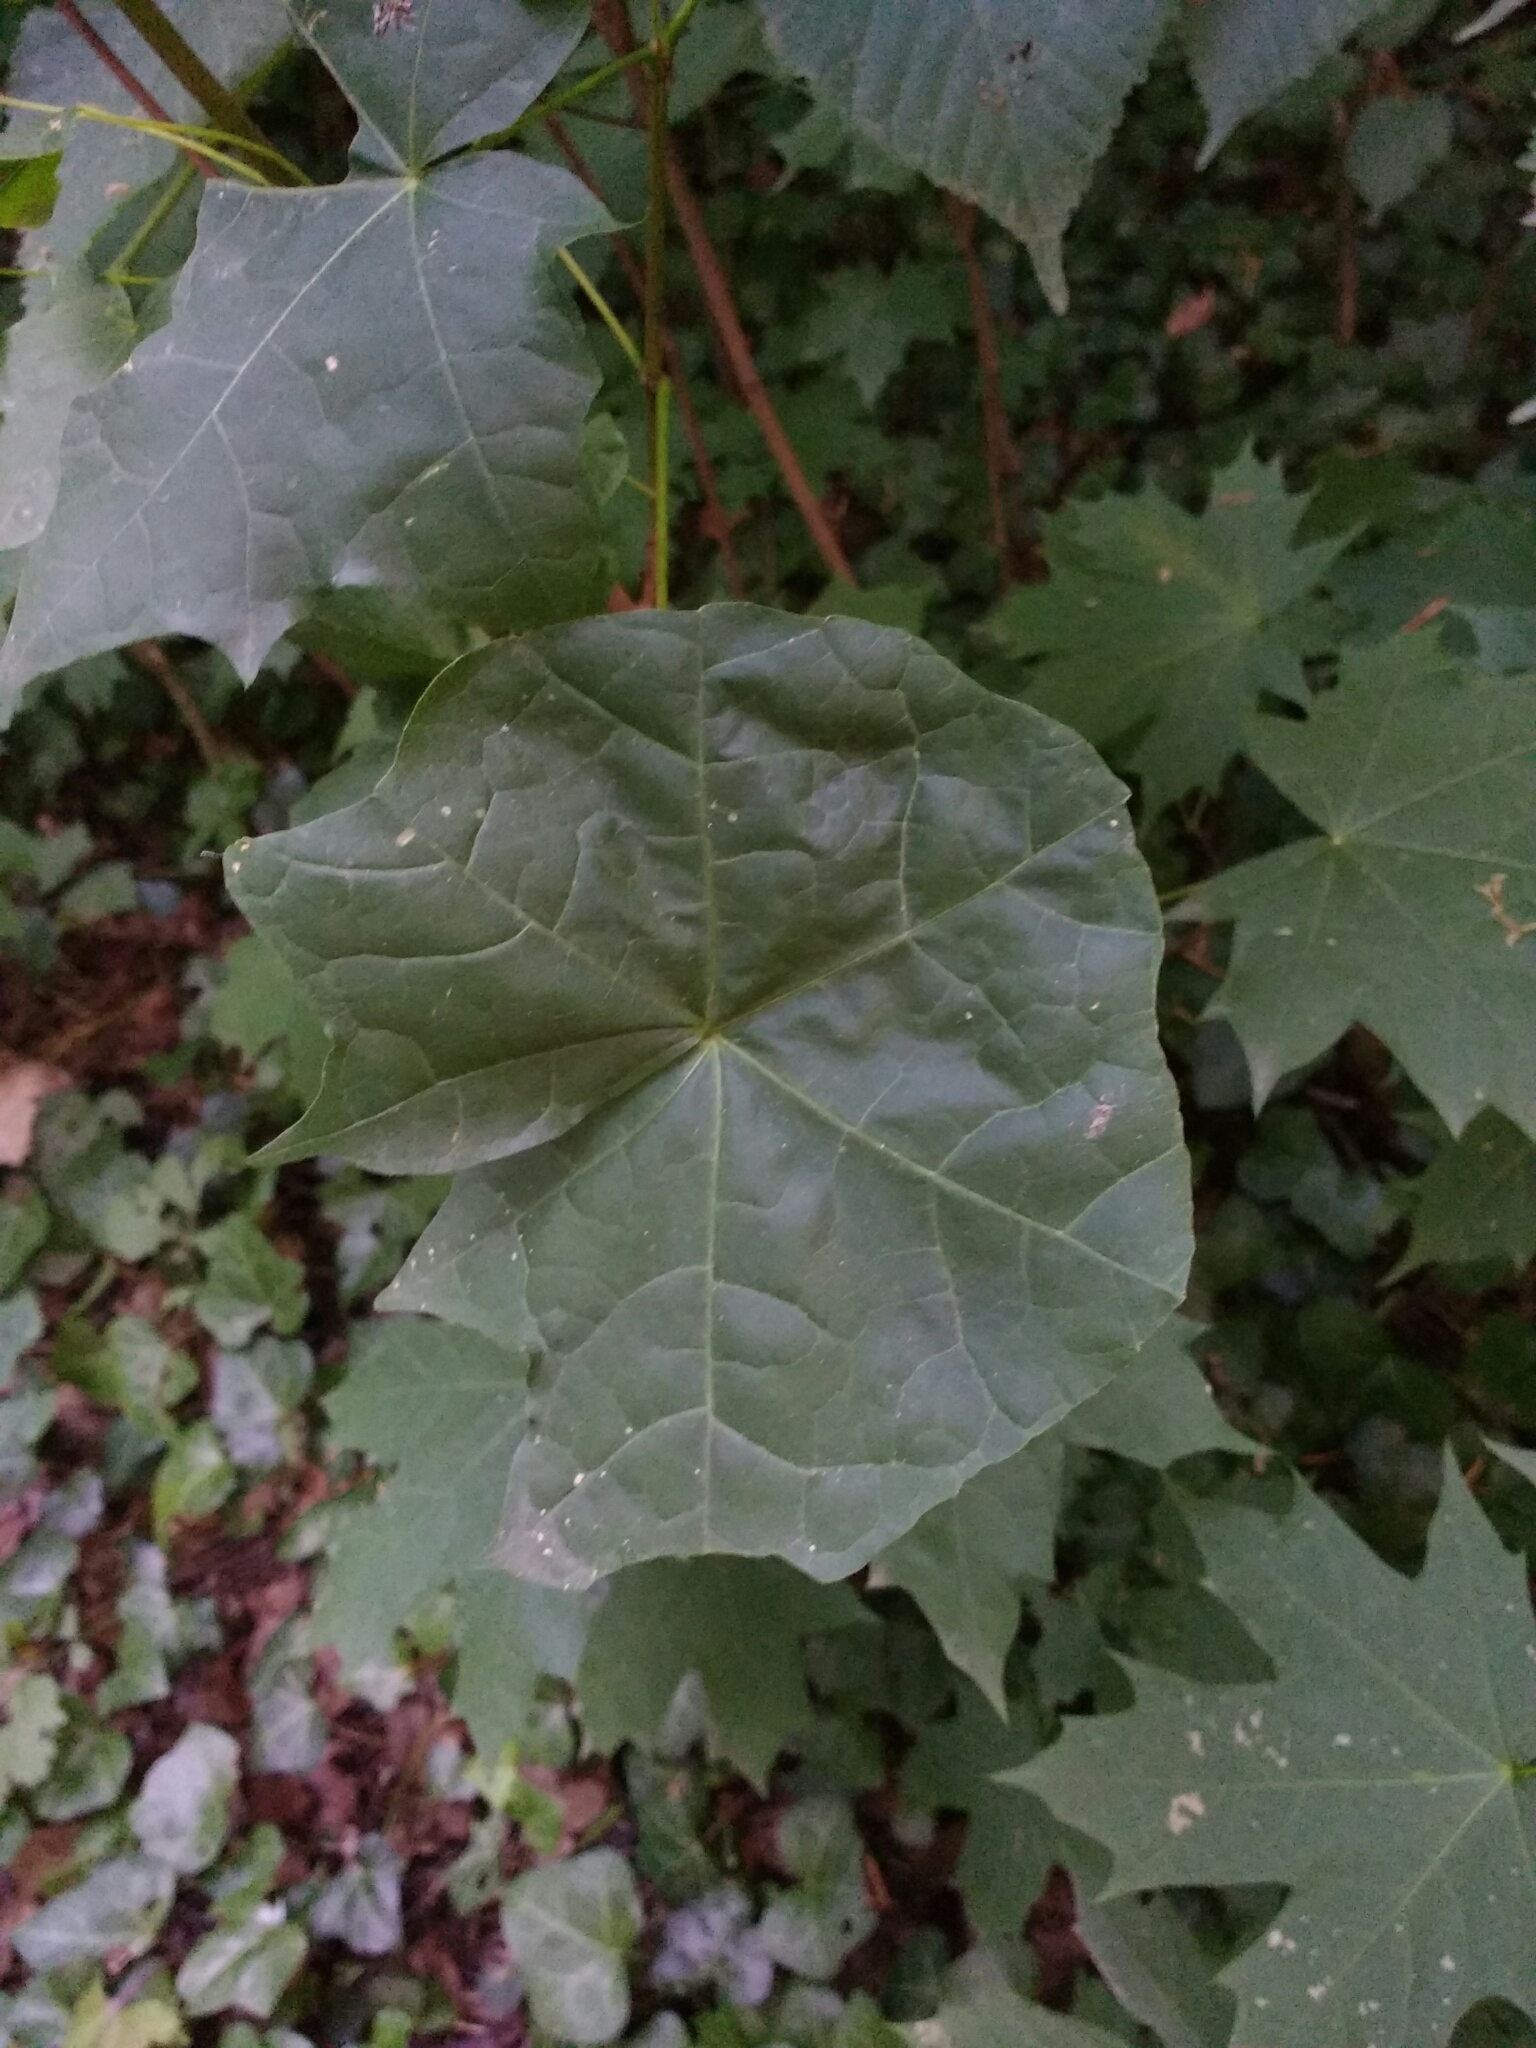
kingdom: Plantae
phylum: Tracheophyta
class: Magnoliopsida
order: Sapindales
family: Sapindaceae
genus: Acer
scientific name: Acer platanoides
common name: Norway maple
